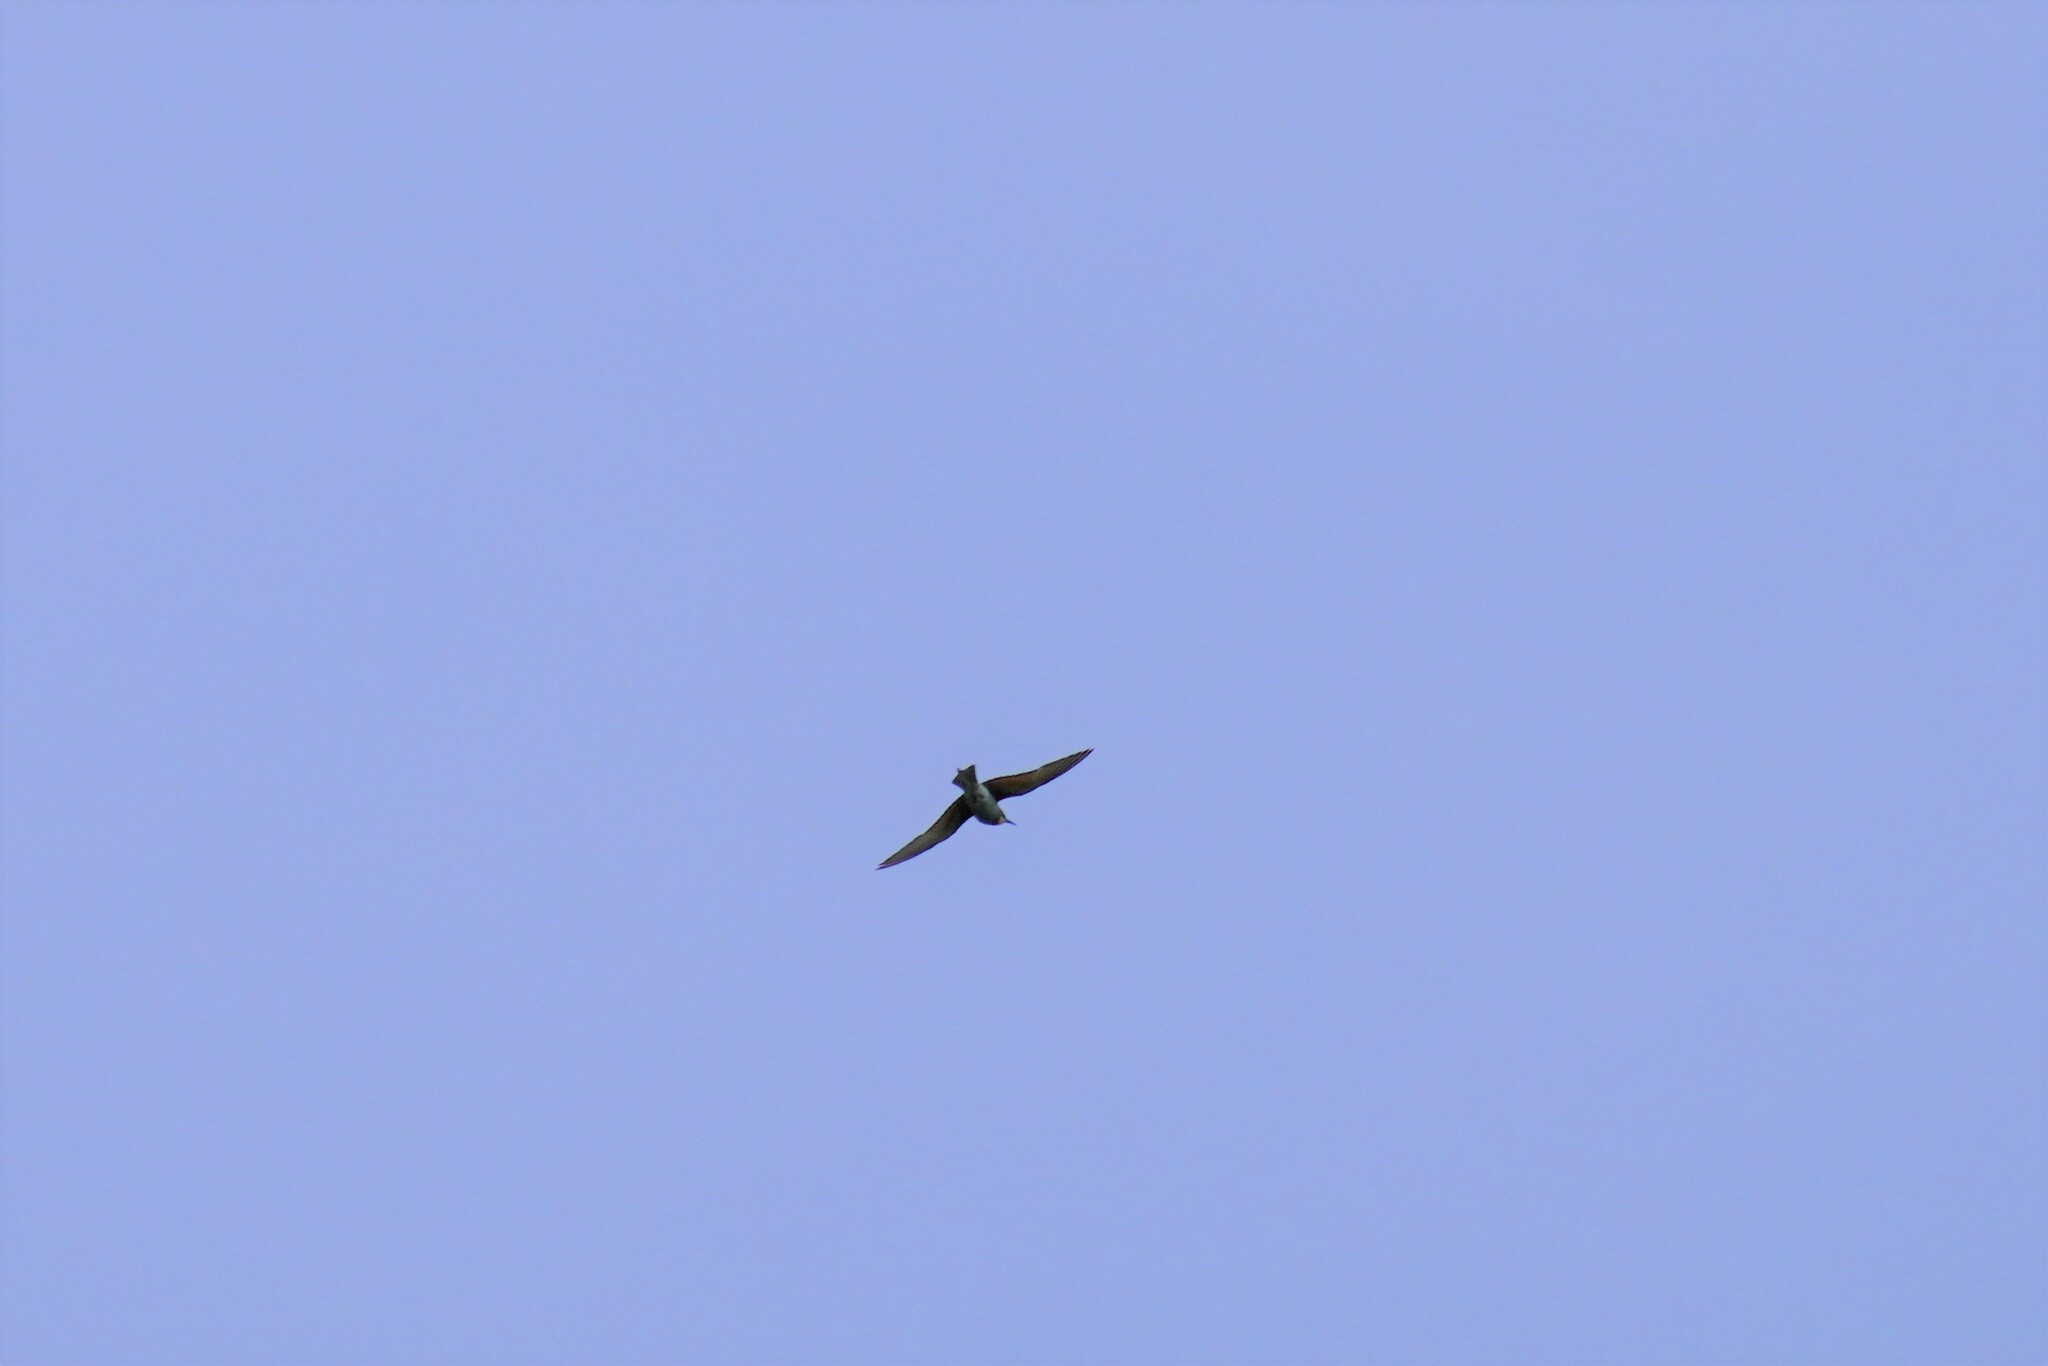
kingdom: Animalia
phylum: Chordata
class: Aves
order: Coraciiformes
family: Meropidae
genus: Merops
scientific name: Merops apiaster
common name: European bee-eater
